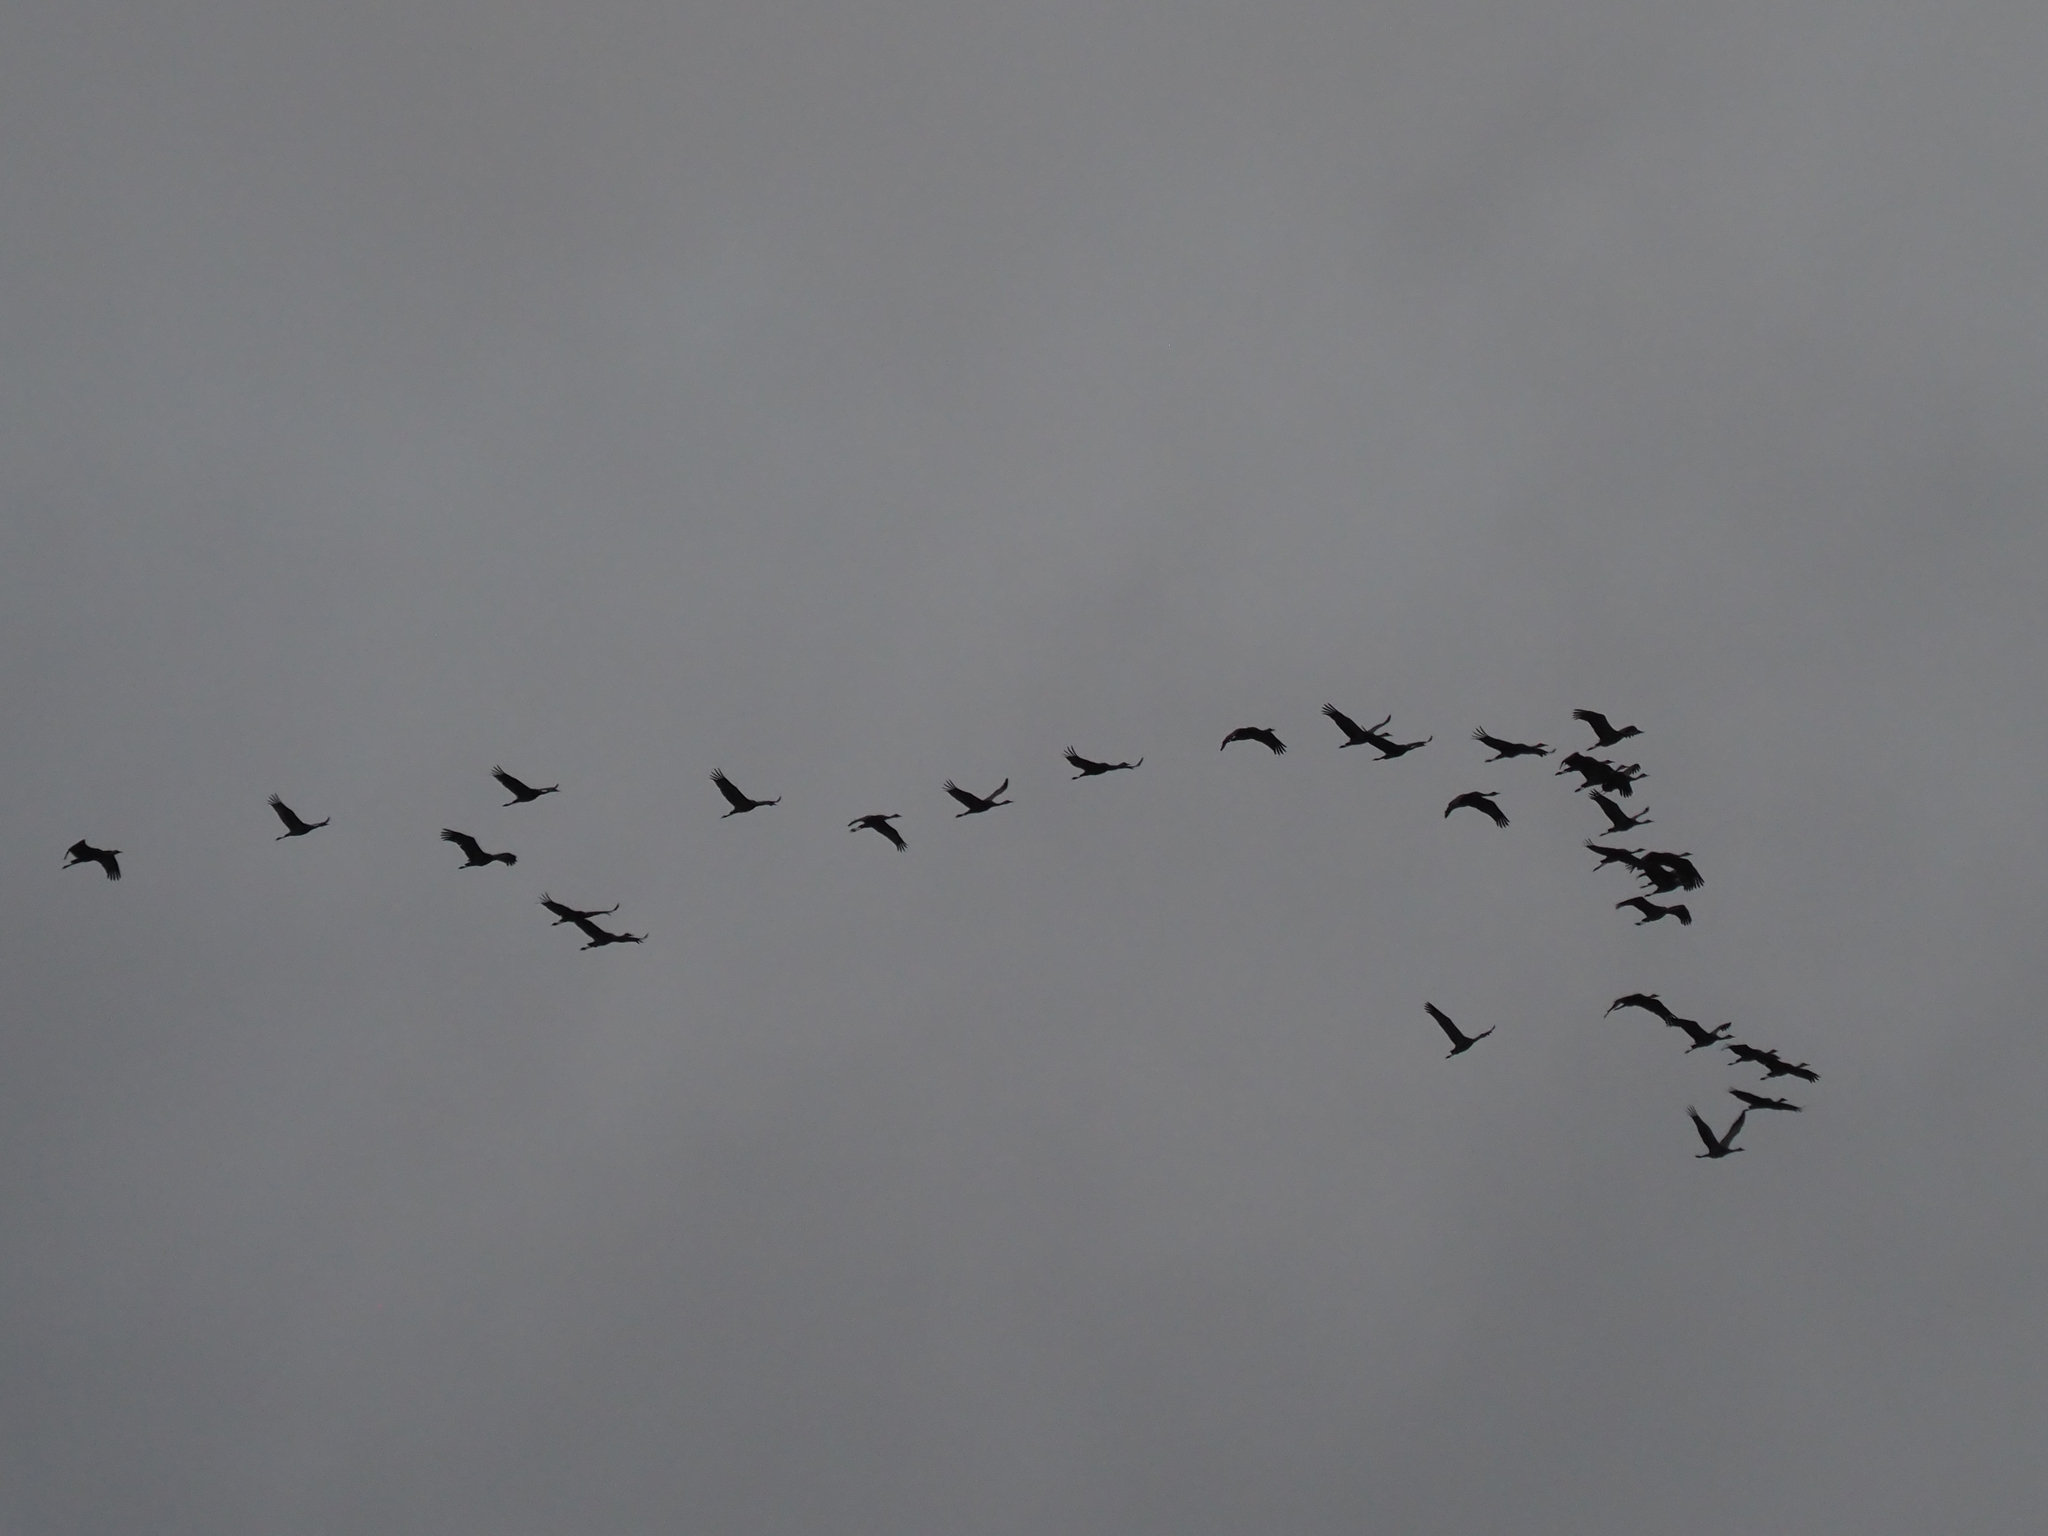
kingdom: Animalia
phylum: Chordata
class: Aves
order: Gruiformes
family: Gruidae
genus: Grus
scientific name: Grus canadensis
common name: Sandhill crane
